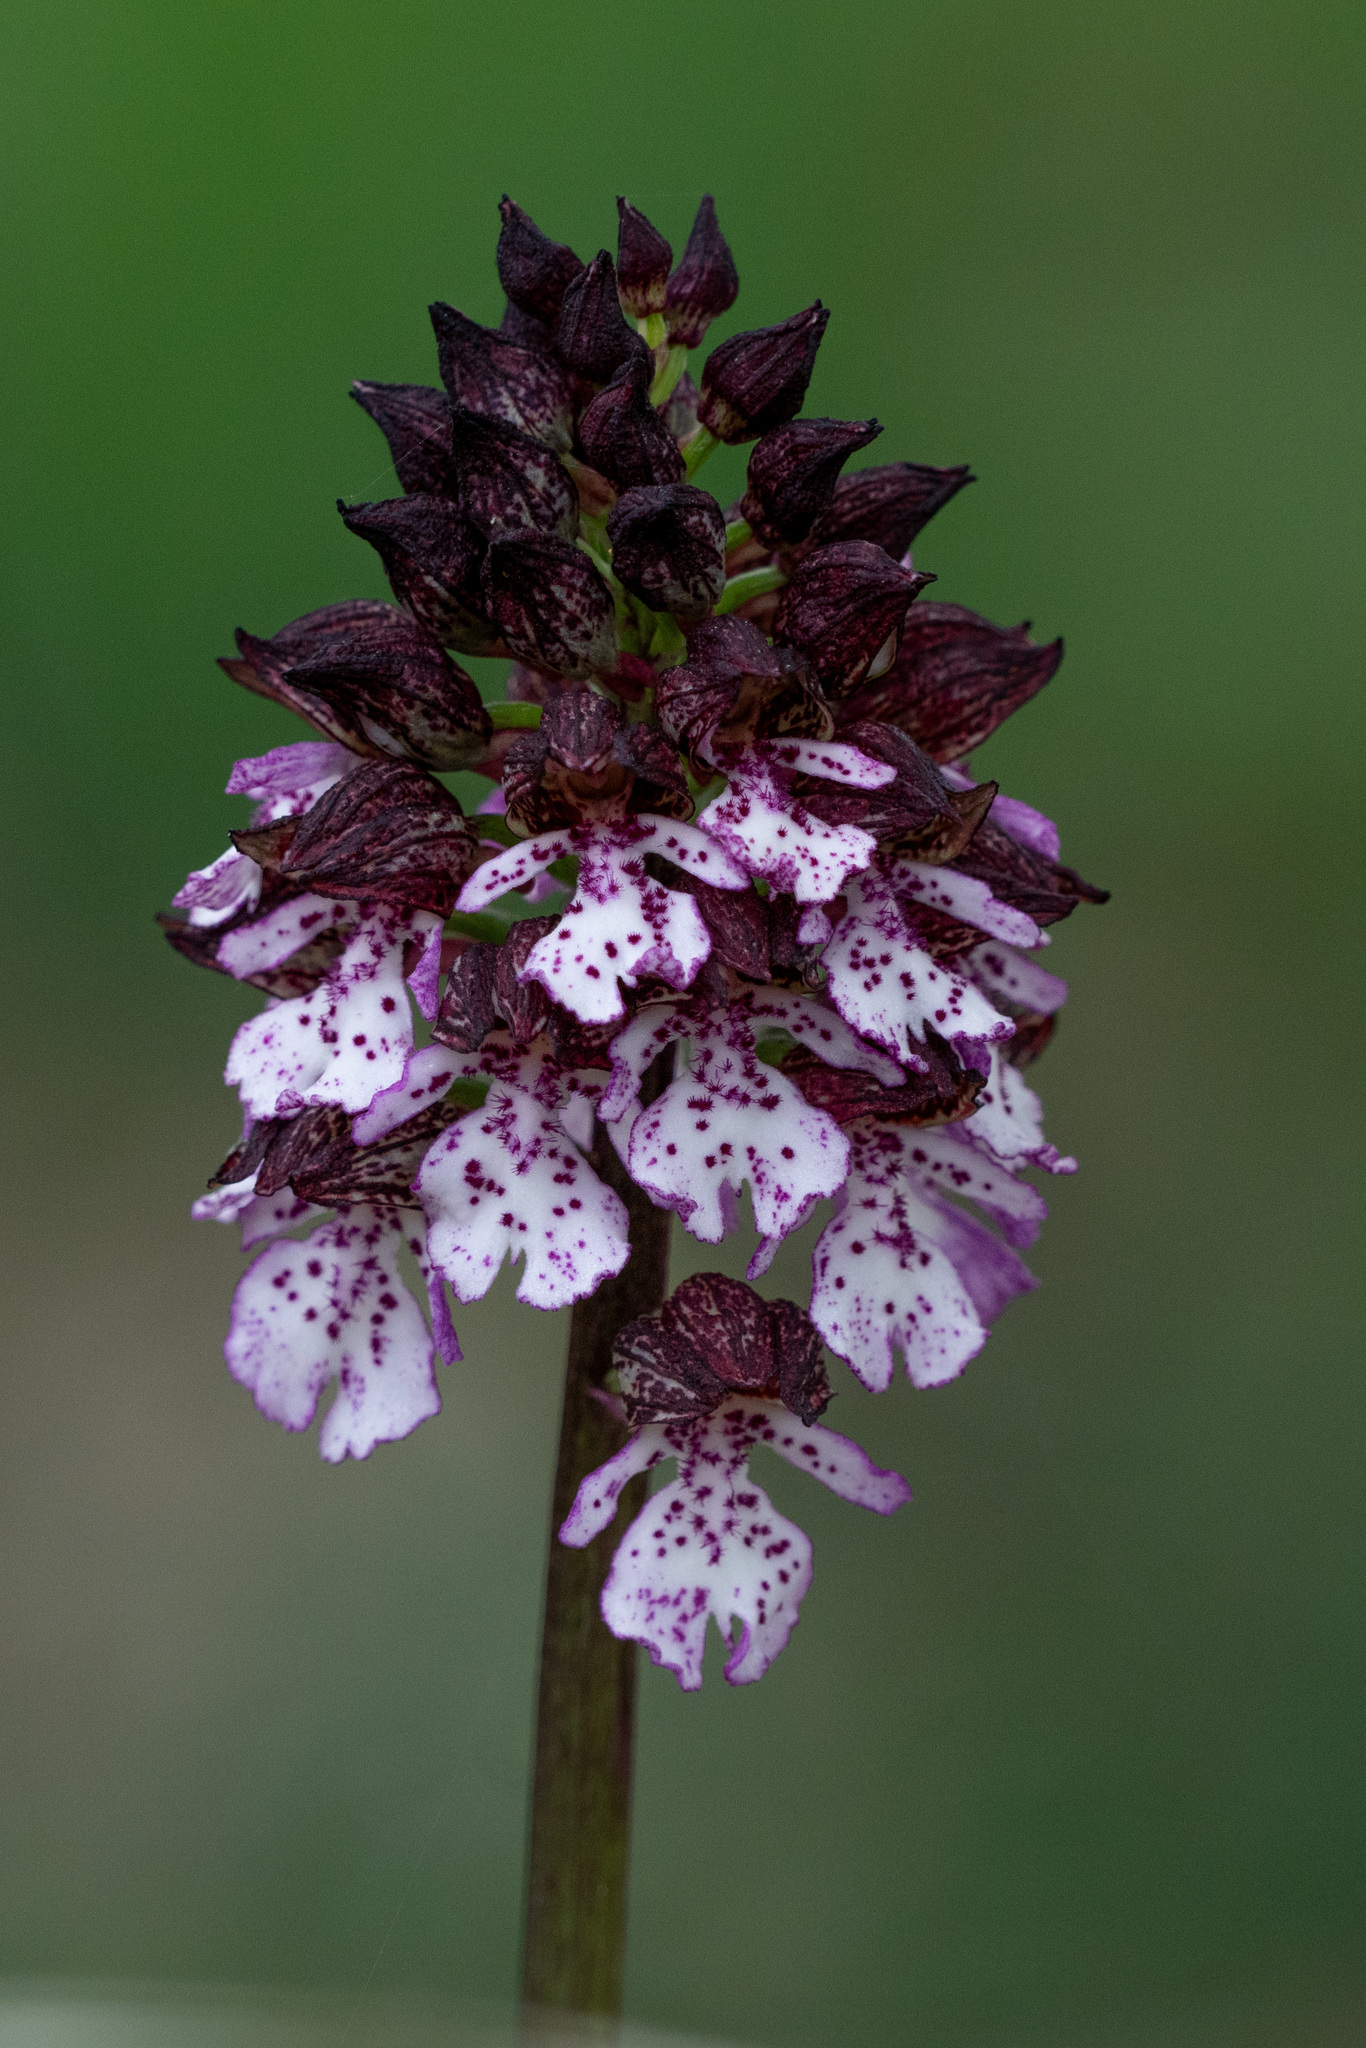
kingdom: Plantae
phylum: Tracheophyta
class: Liliopsida
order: Asparagales
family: Orchidaceae
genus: Orchis
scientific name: Orchis purpurea
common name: Lady orchid
